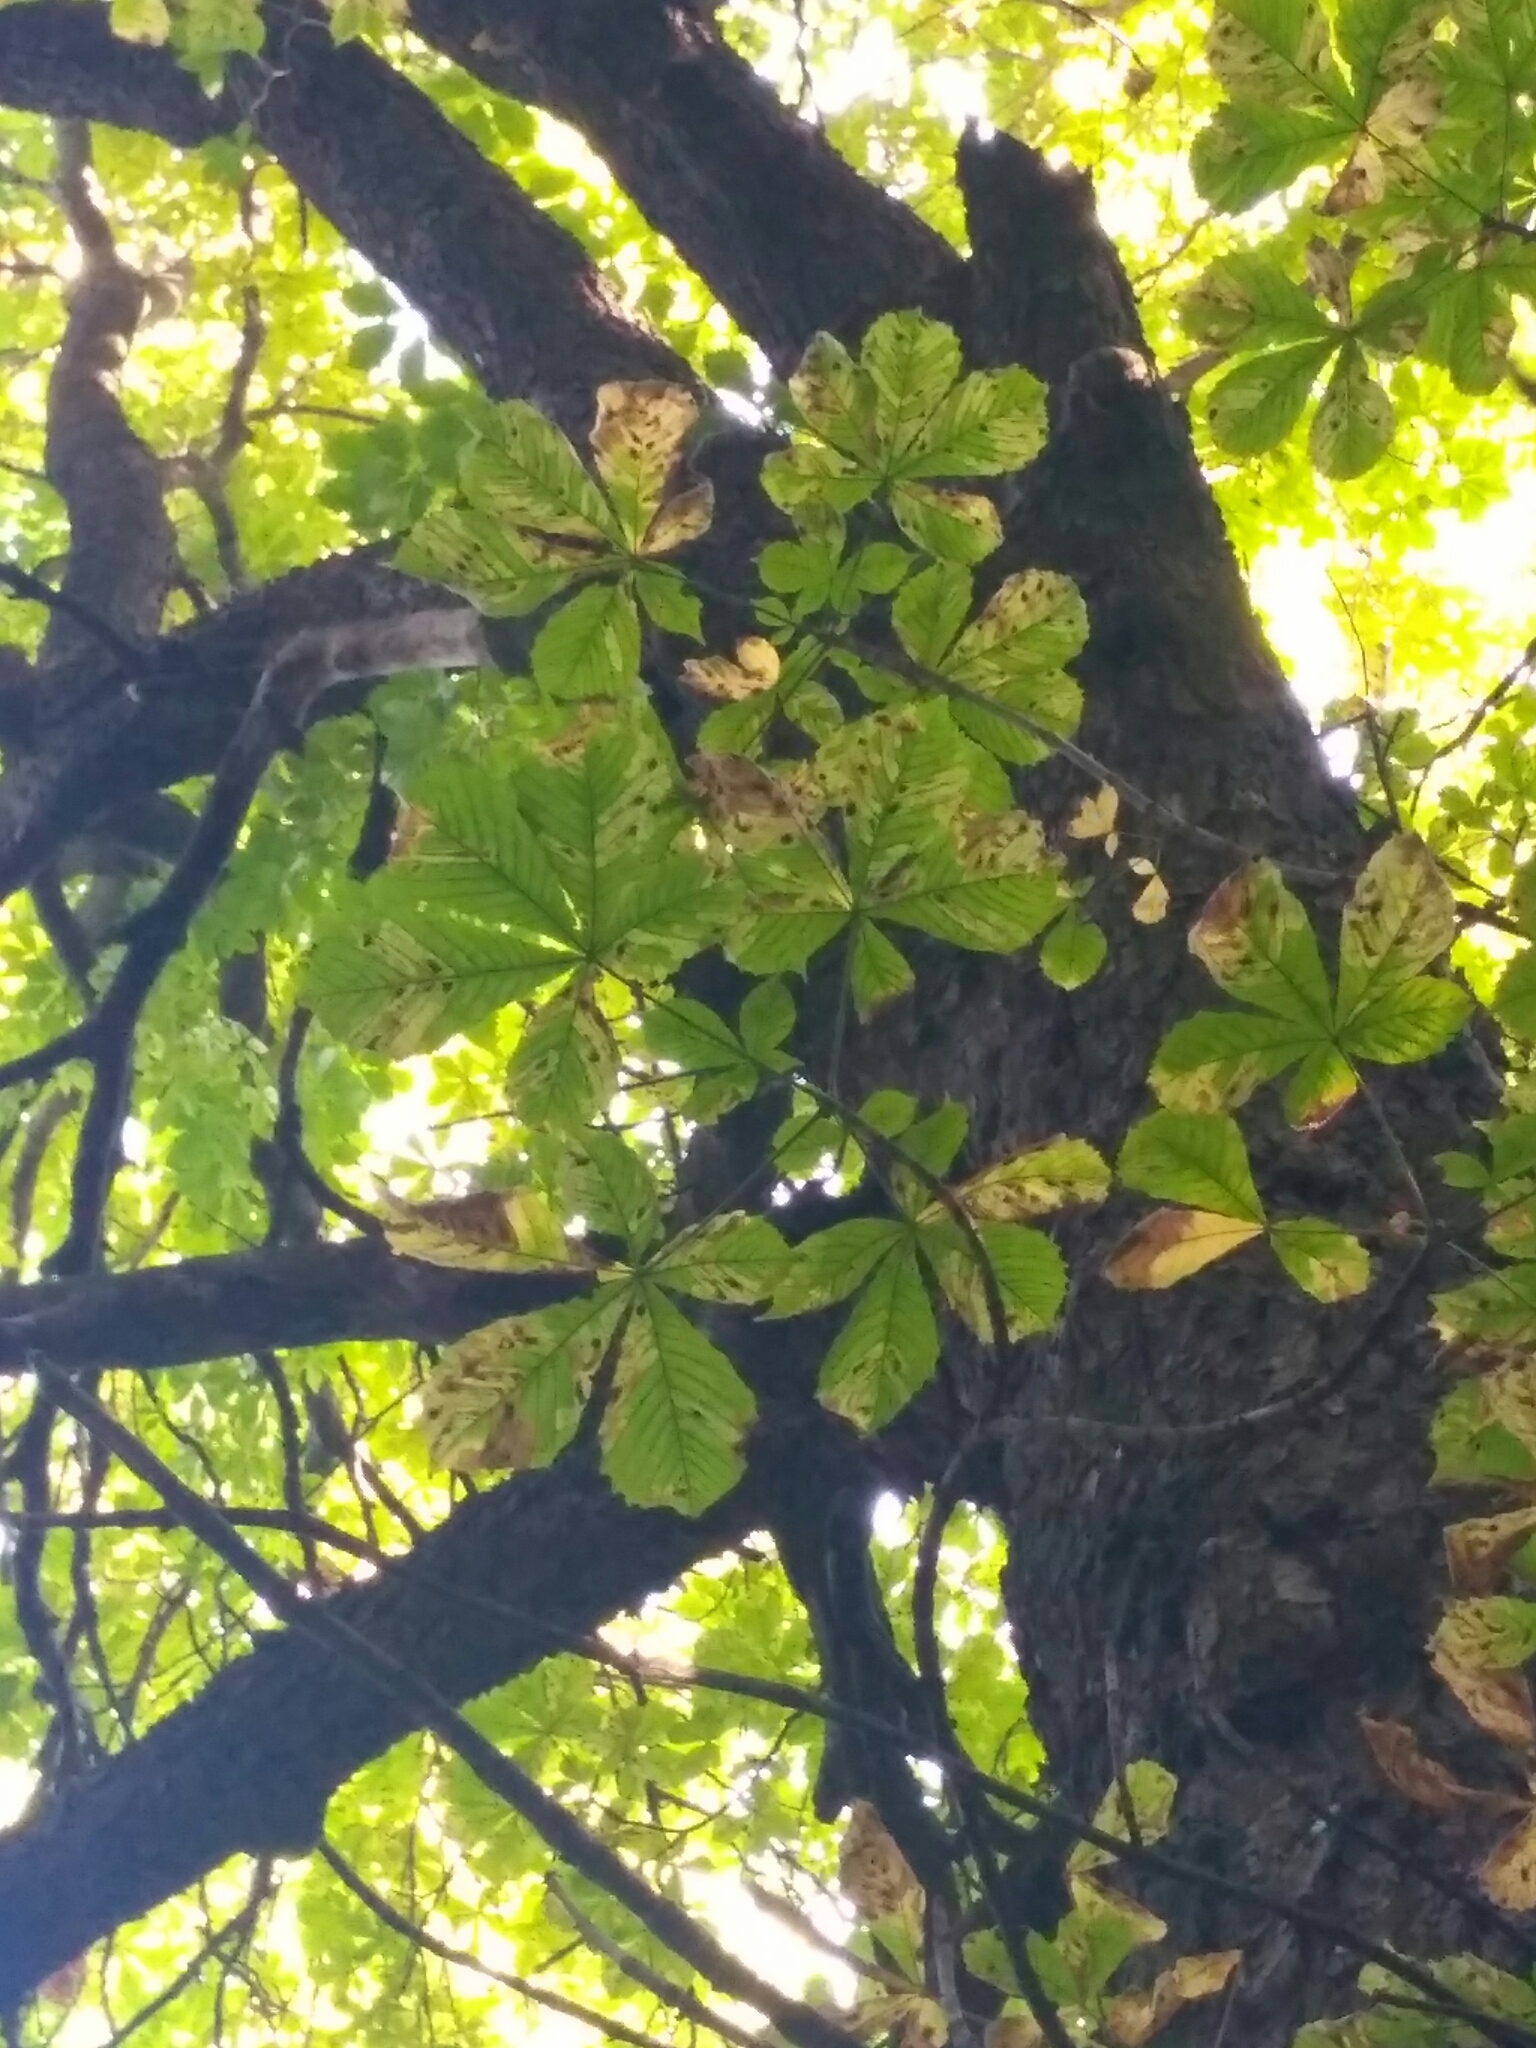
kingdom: Plantae
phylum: Tracheophyta
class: Magnoliopsida
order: Sapindales
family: Sapindaceae
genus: Aesculus
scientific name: Aesculus hippocastanum
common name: Horse-chestnut
